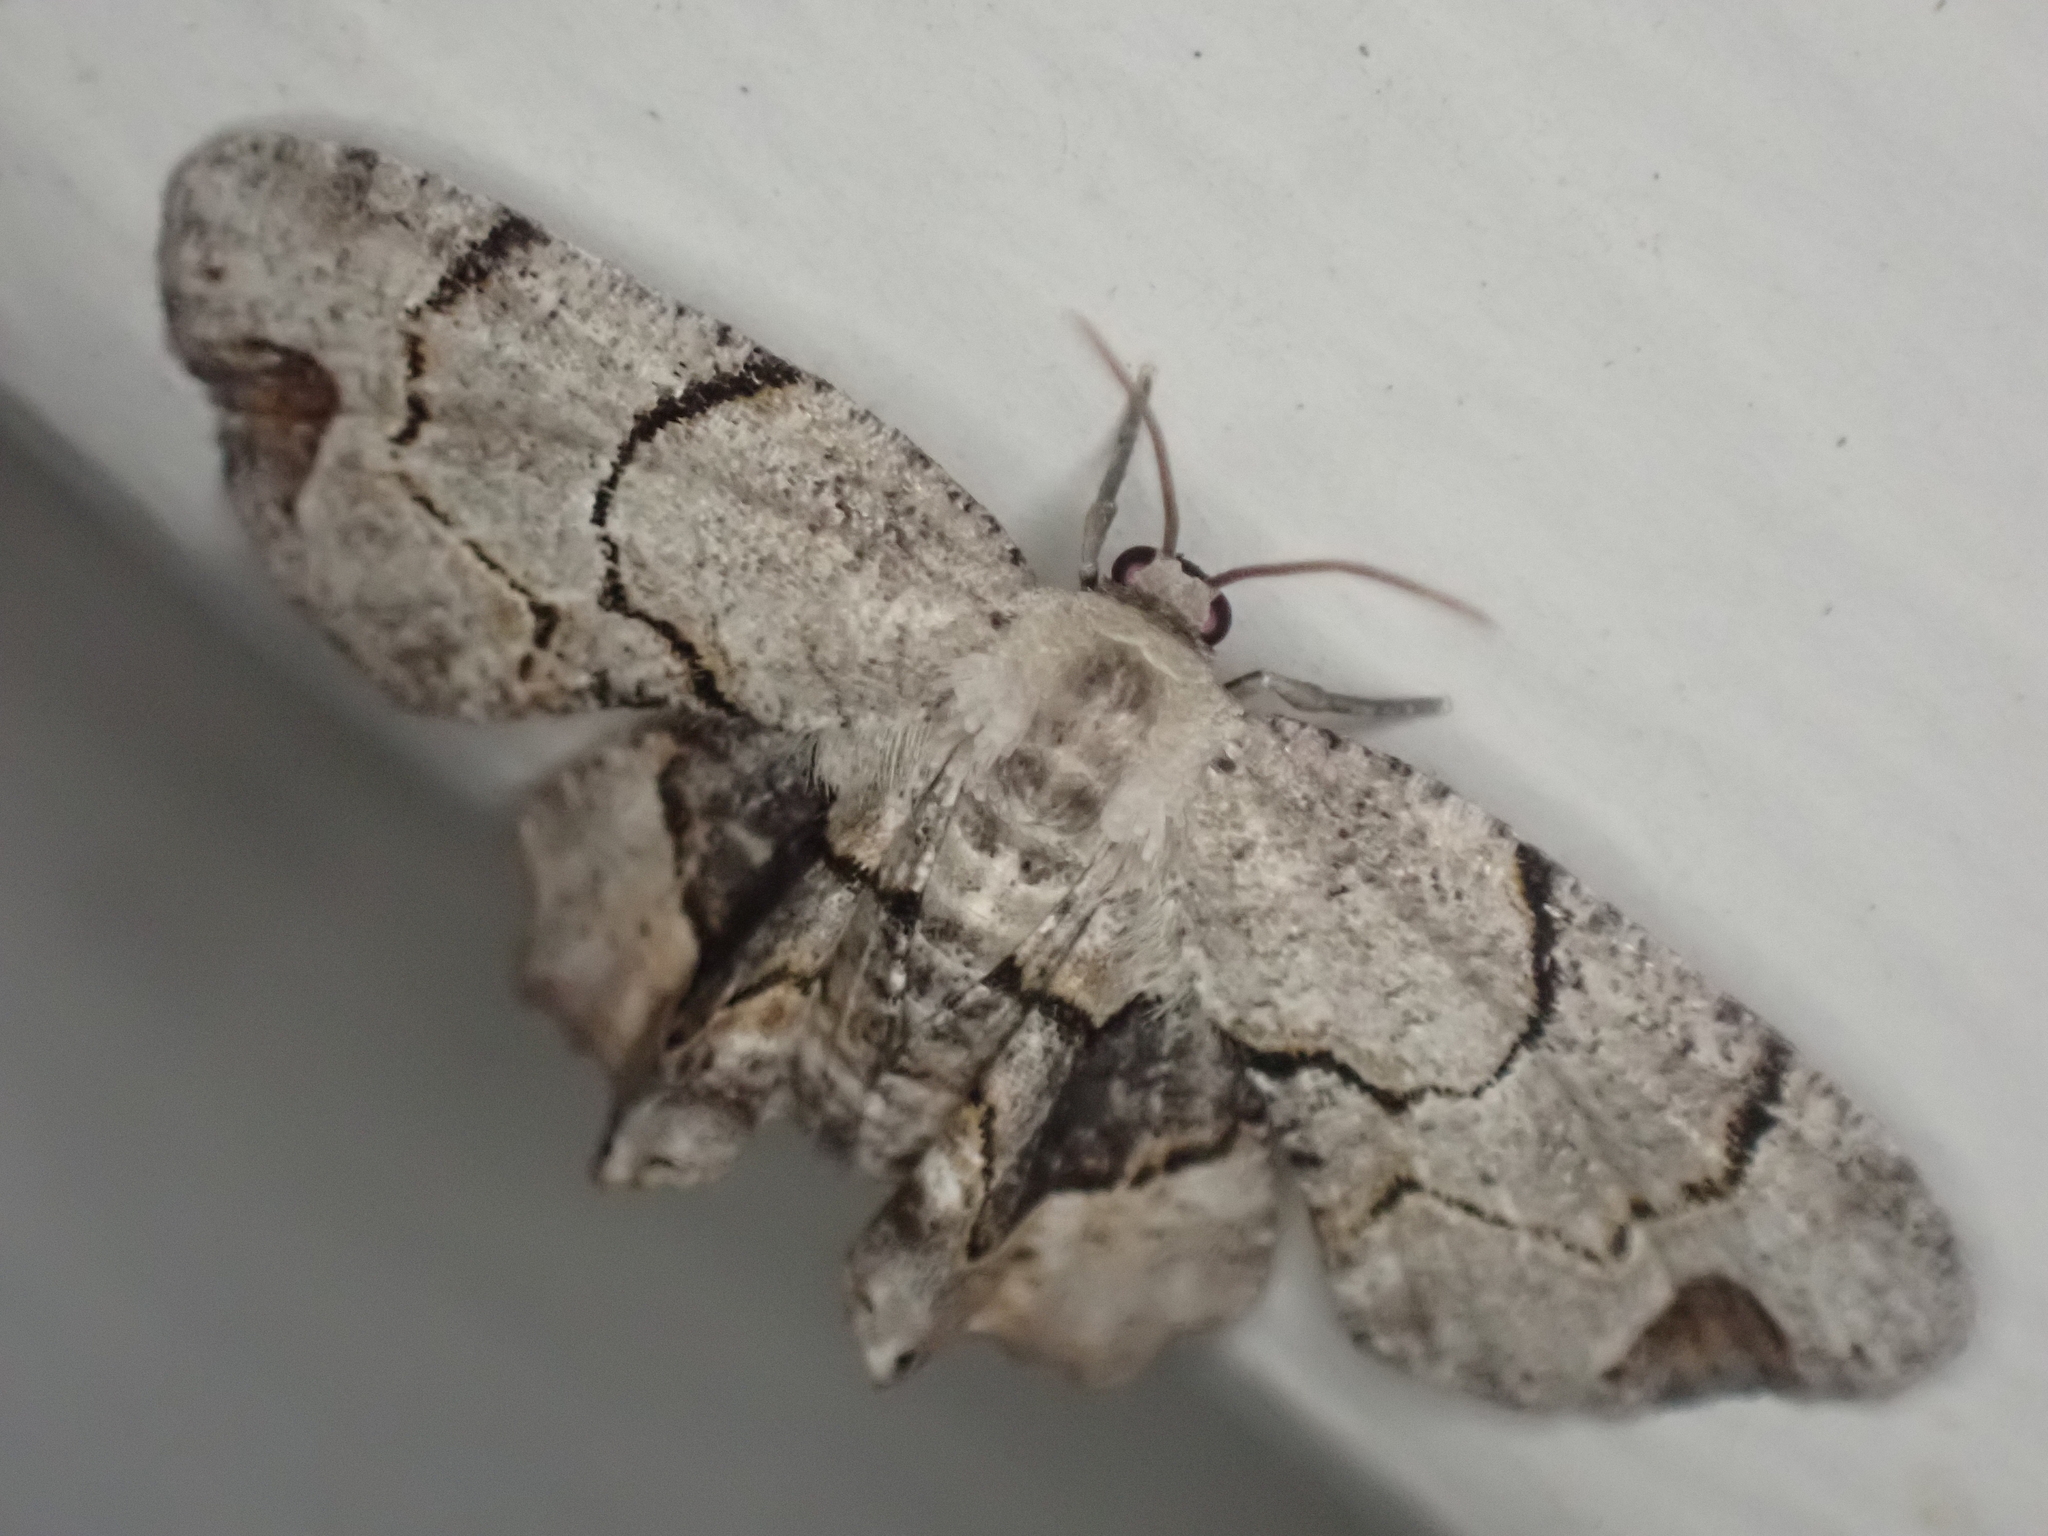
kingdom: Animalia
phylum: Arthropoda
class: Insecta
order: Lepidoptera
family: Uraniidae
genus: Epiplema
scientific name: Epiplema Callizzia amorata
